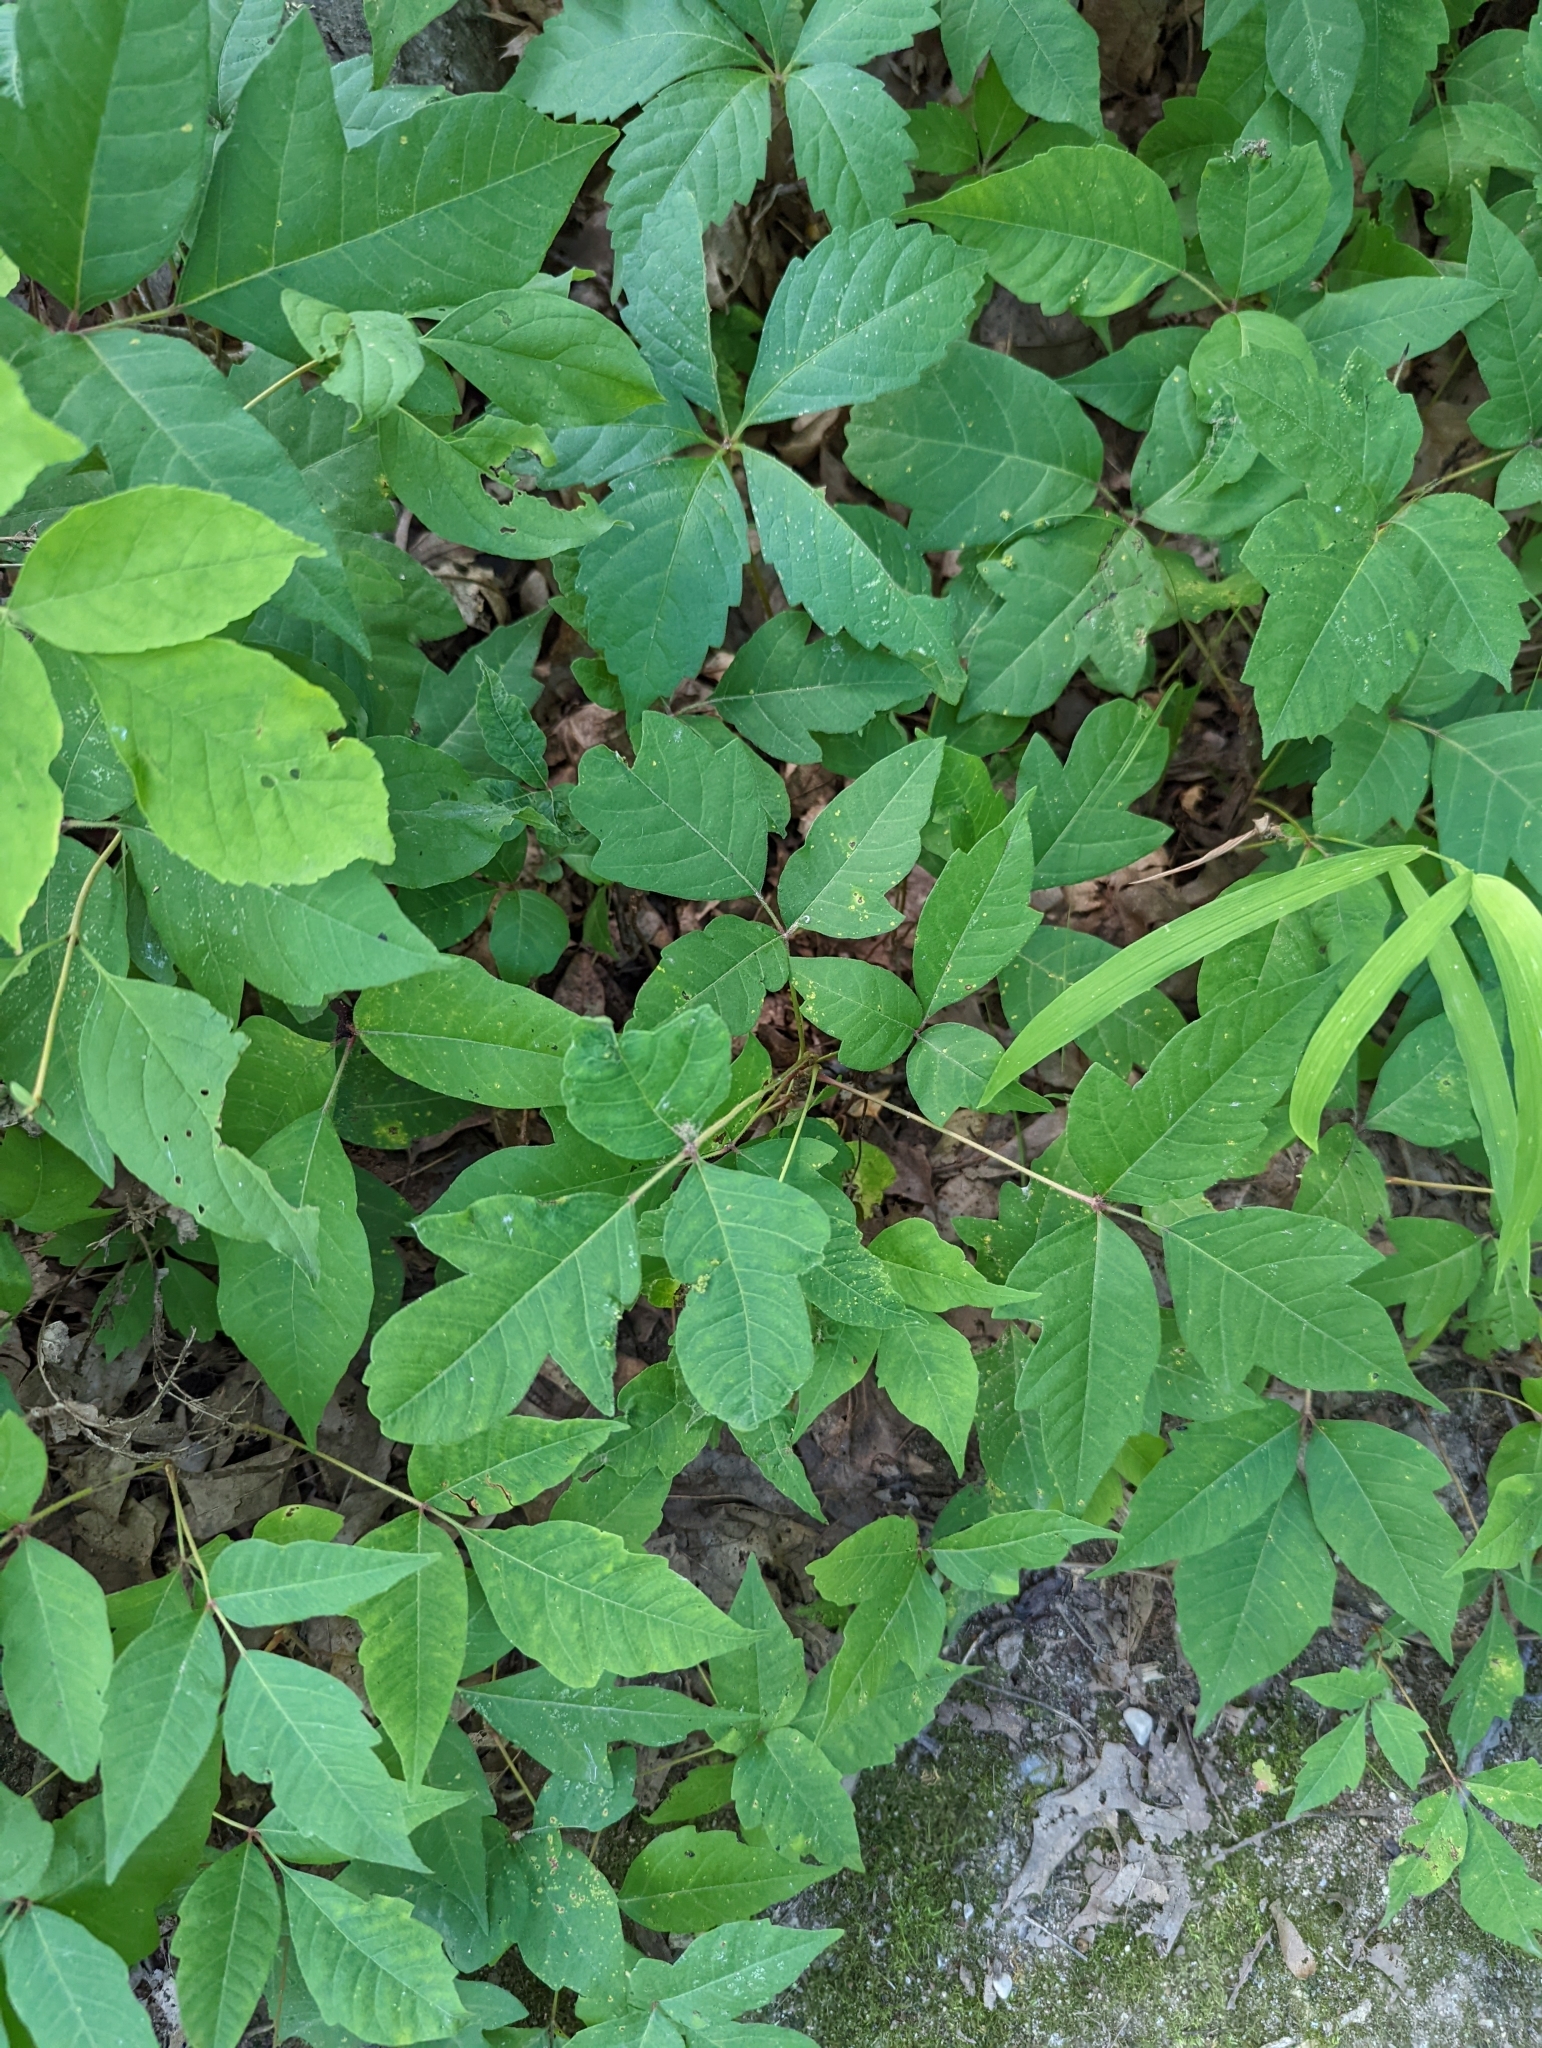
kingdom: Plantae
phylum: Tracheophyta
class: Magnoliopsida
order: Sapindales
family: Anacardiaceae
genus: Toxicodendron
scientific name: Toxicodendron radicans
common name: Poison ivy
